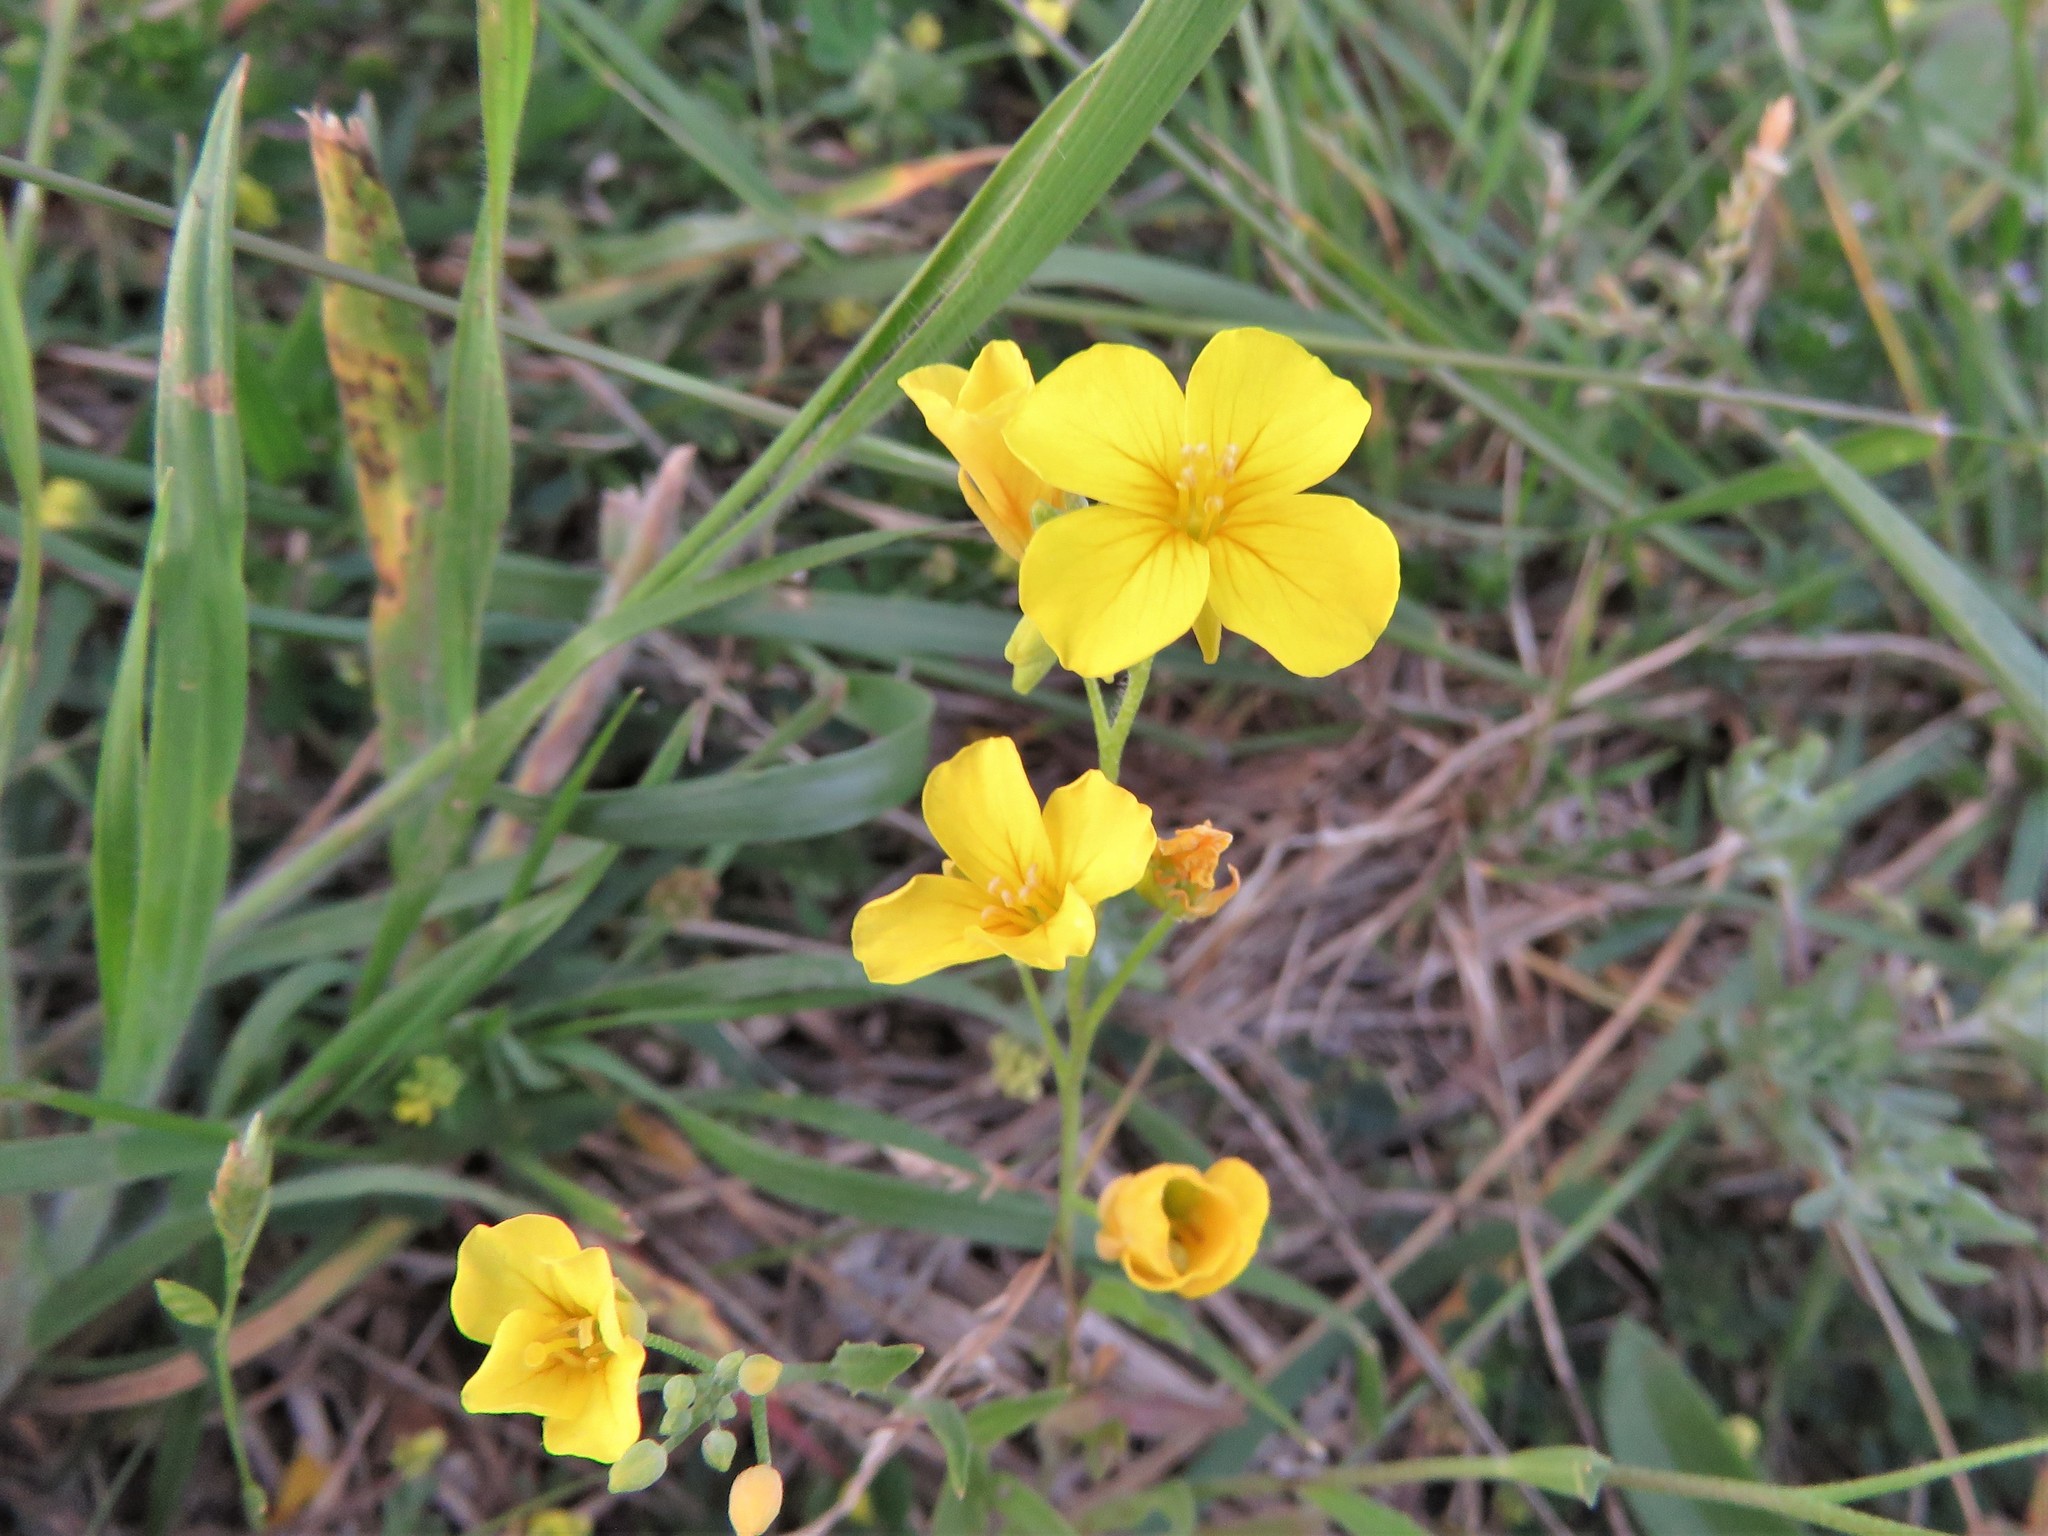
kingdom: Plantae
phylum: Tracheophyta
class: Magnoliopsida
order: Brassicales
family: Brassicaceae
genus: Physaria
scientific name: Physaria gracilis
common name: Spreading bladderpod
